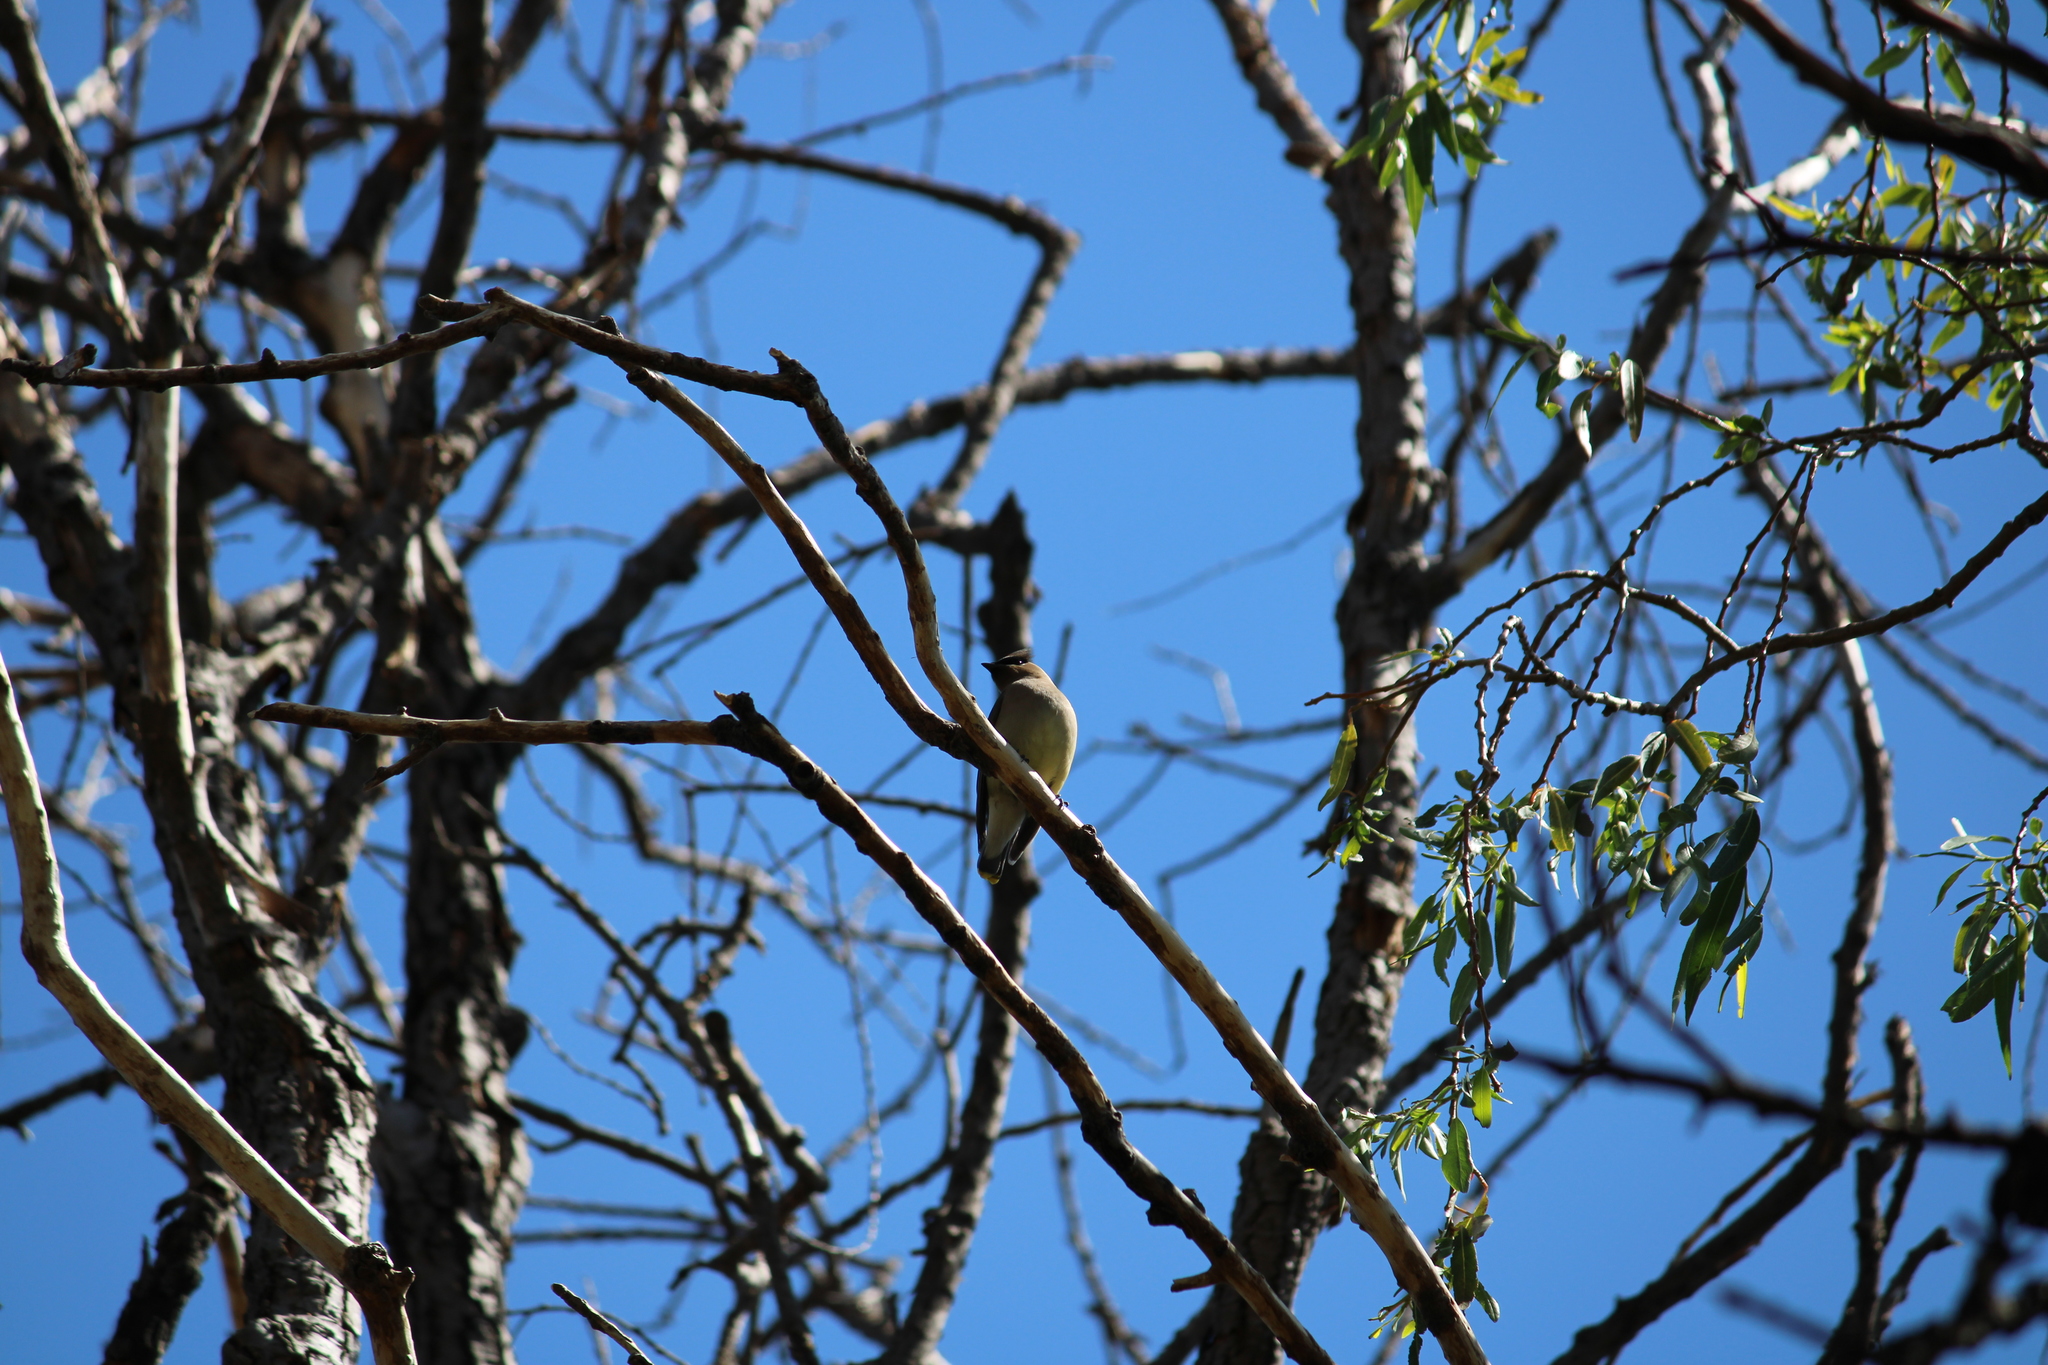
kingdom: Animalia
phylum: Chordata
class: Aves
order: Passeriformes
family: Bombycillidae
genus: Bombycilla
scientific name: Bombycilla cedrorum
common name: Cedar waxwing
